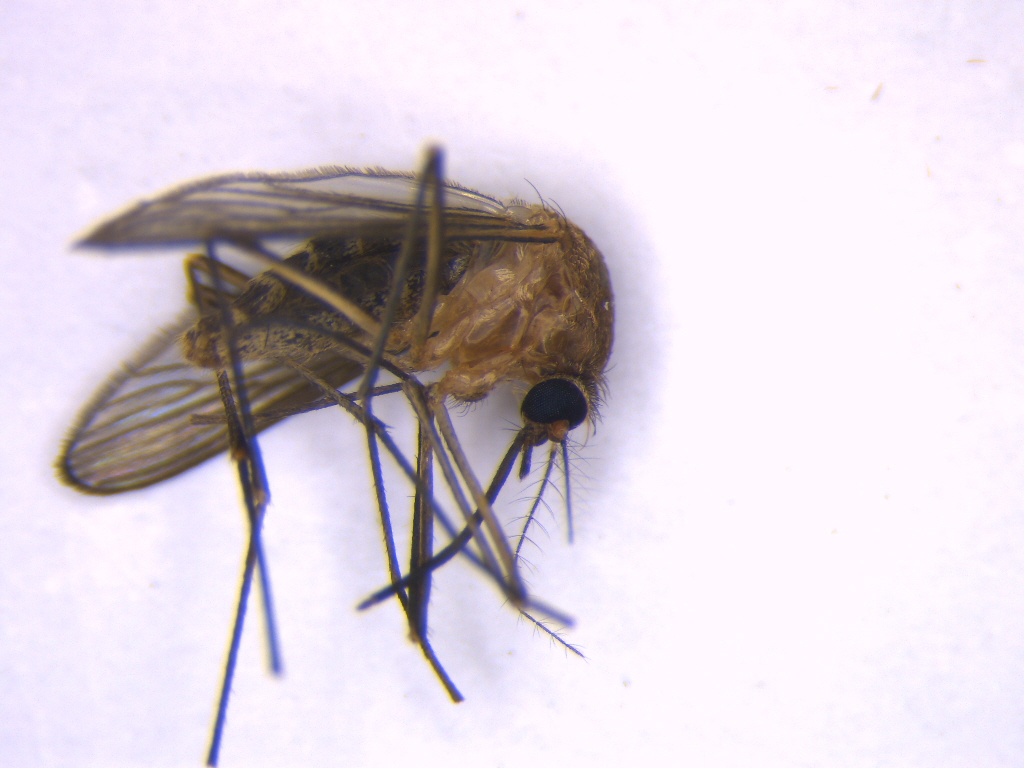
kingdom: Animalia
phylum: Arthropoda
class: Insecta
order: Diptera
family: Culicidae
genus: Culex
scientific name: Culex quinquefasciatus
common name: Southern house mosquito
